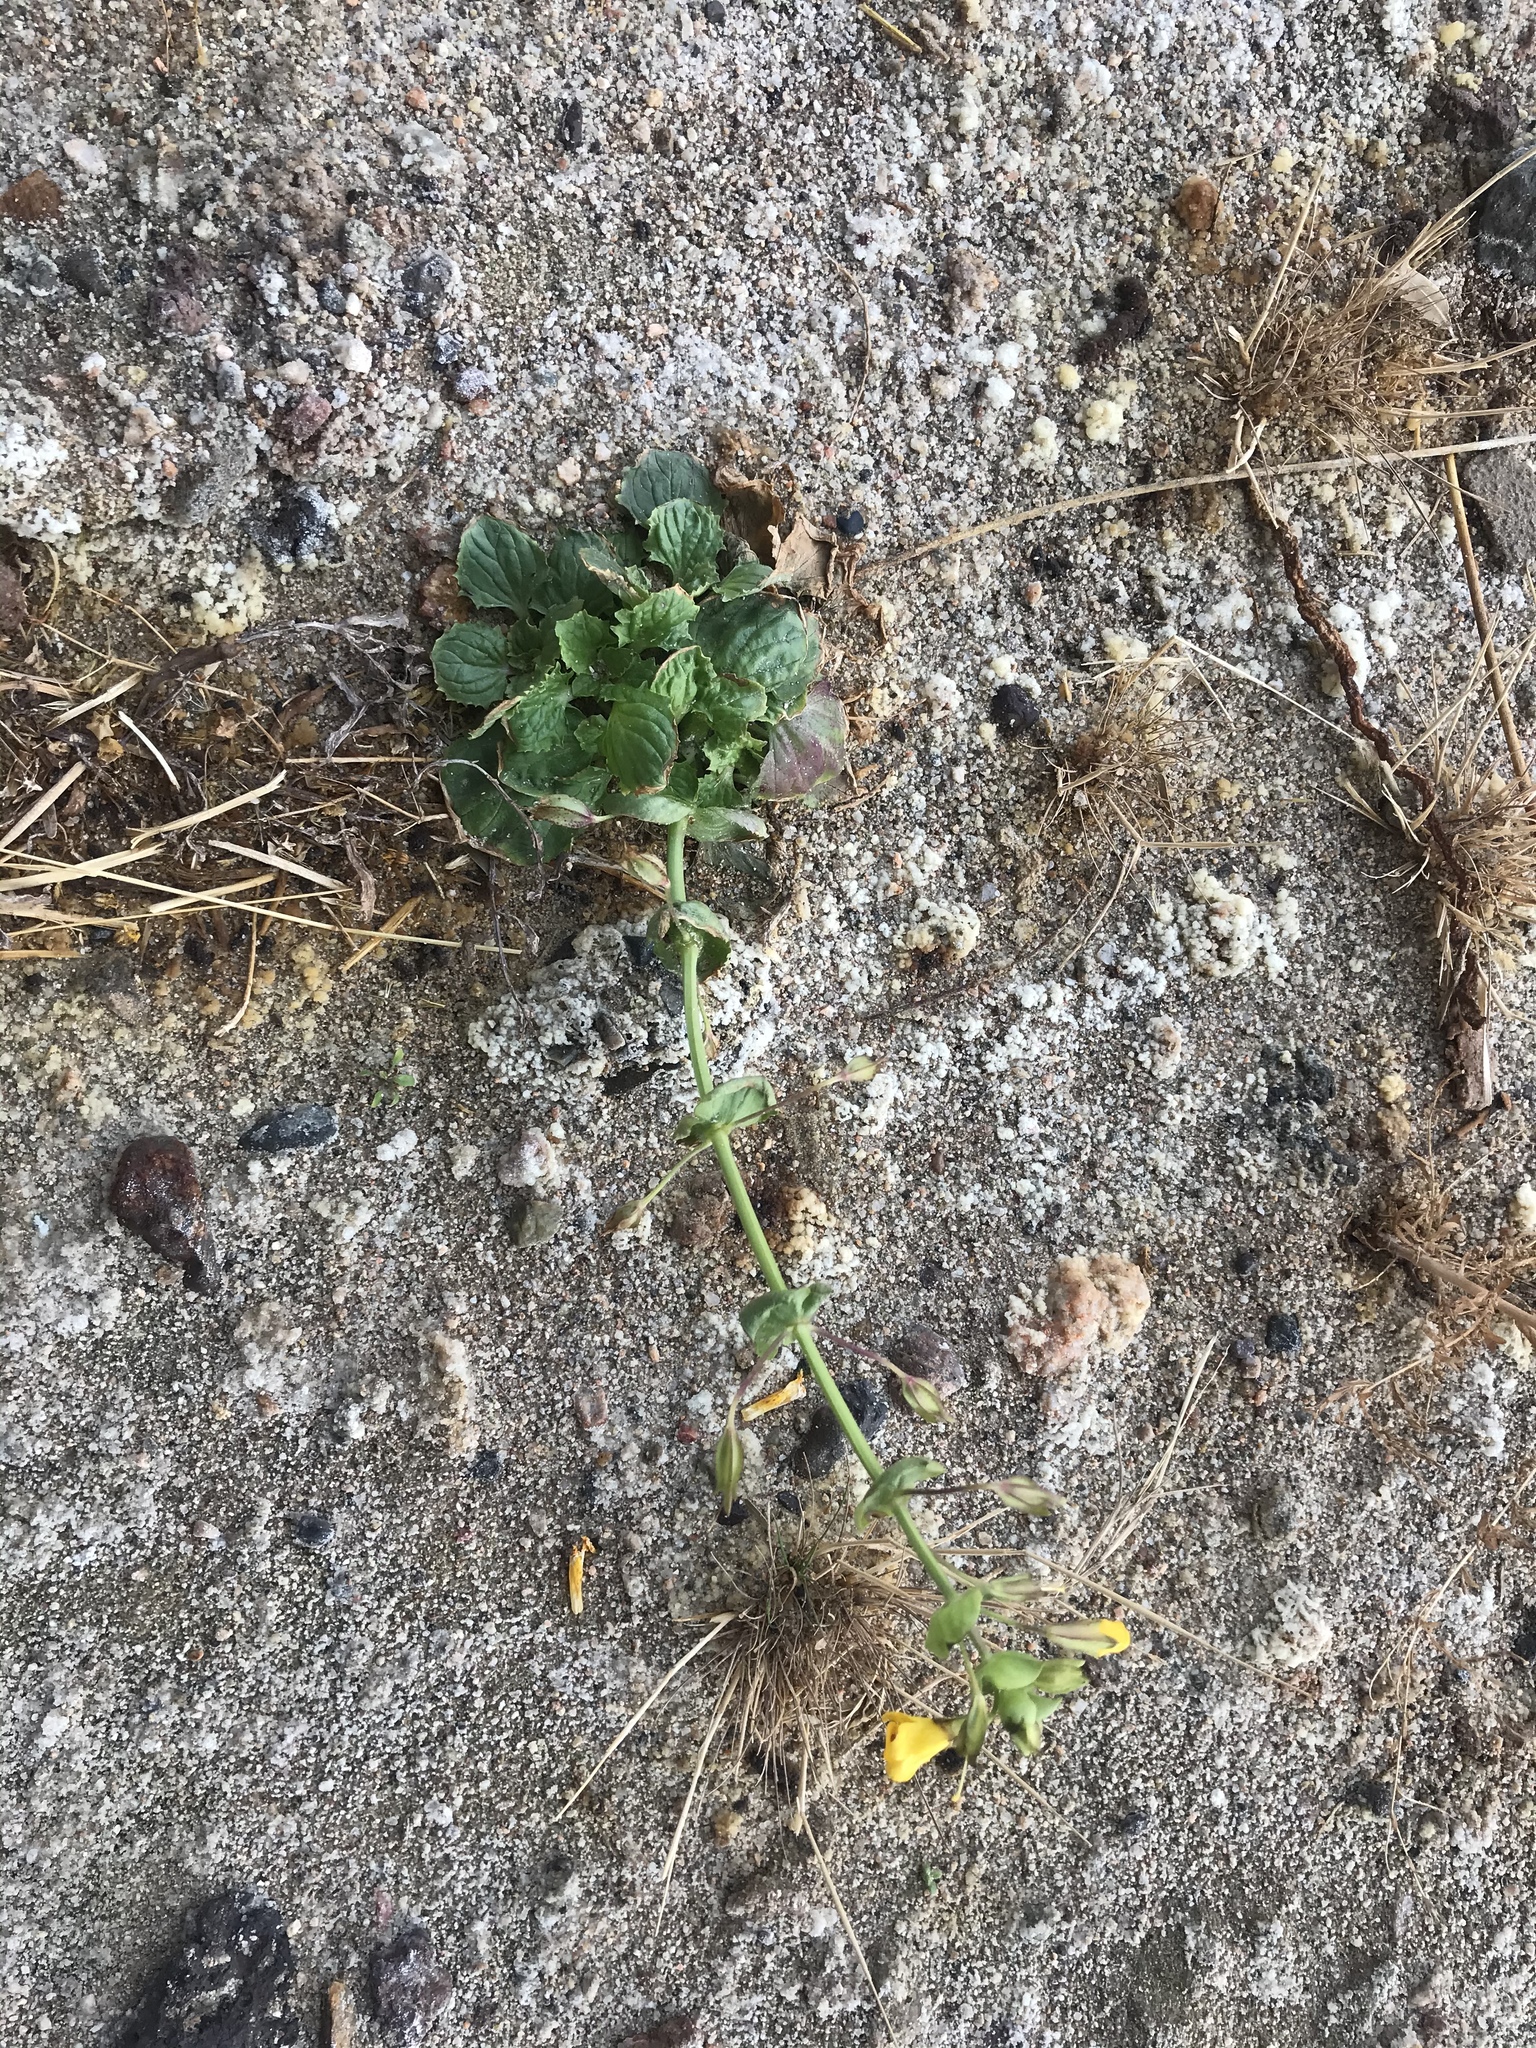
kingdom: Plantae
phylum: Tracheophyta
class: Magnoliopsida
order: Lamiales
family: Phrymaceae
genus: Erythranthe
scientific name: Erythranthe guttata
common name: Monkeyflower
